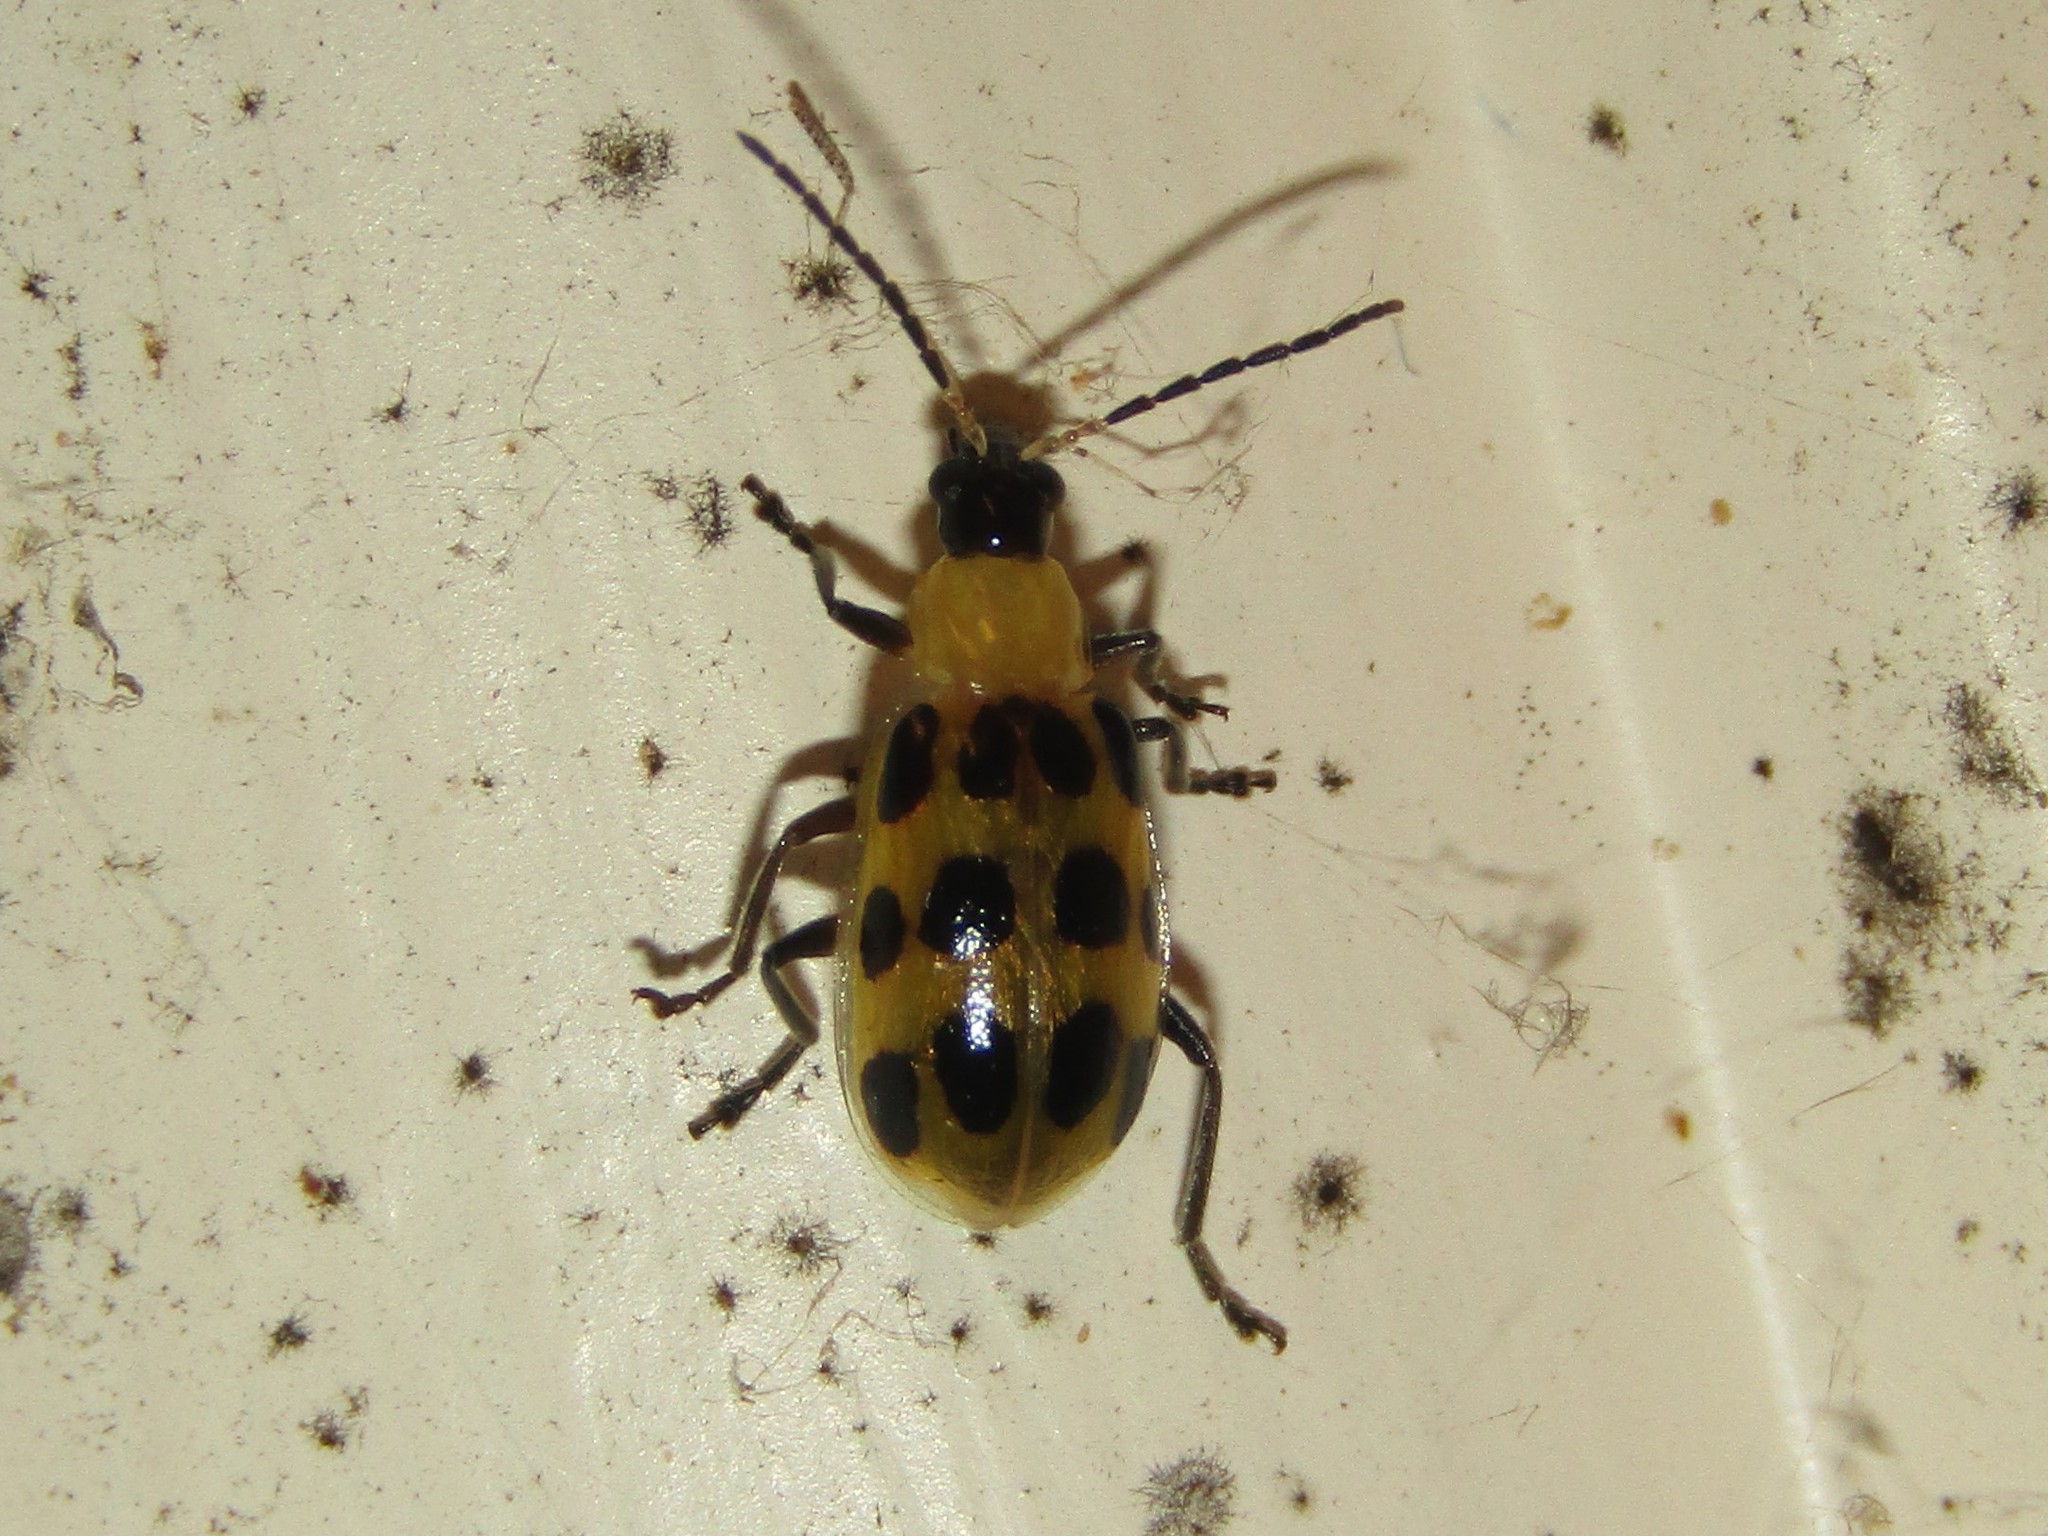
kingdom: Animalia
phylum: Arthropoda
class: Insecta
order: Coleoptera
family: Chrysomelidae
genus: Diabrotica
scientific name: Diabrotica undecimpunctata
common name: Spotted cucumber beetle
